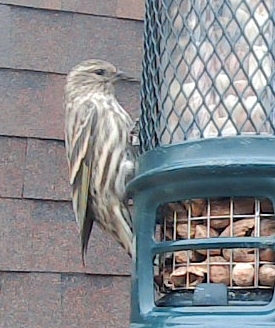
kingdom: Animalia
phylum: Chordata
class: Aves
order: Passeriformes
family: Fringillidae
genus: Spinus
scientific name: Spinus pinus
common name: Pine siskin
